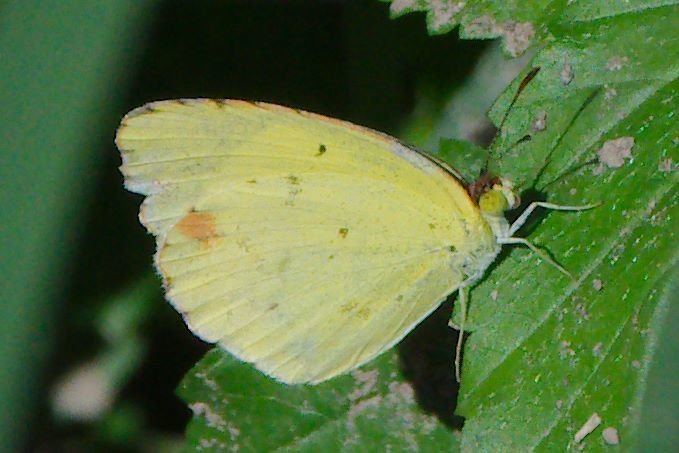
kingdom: Animalia
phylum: Arthropoda
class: Insecta
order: Lepidoptera
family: Pieridae
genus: Pyrisitia
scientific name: Pyrisitia lisa
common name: Little yellow
